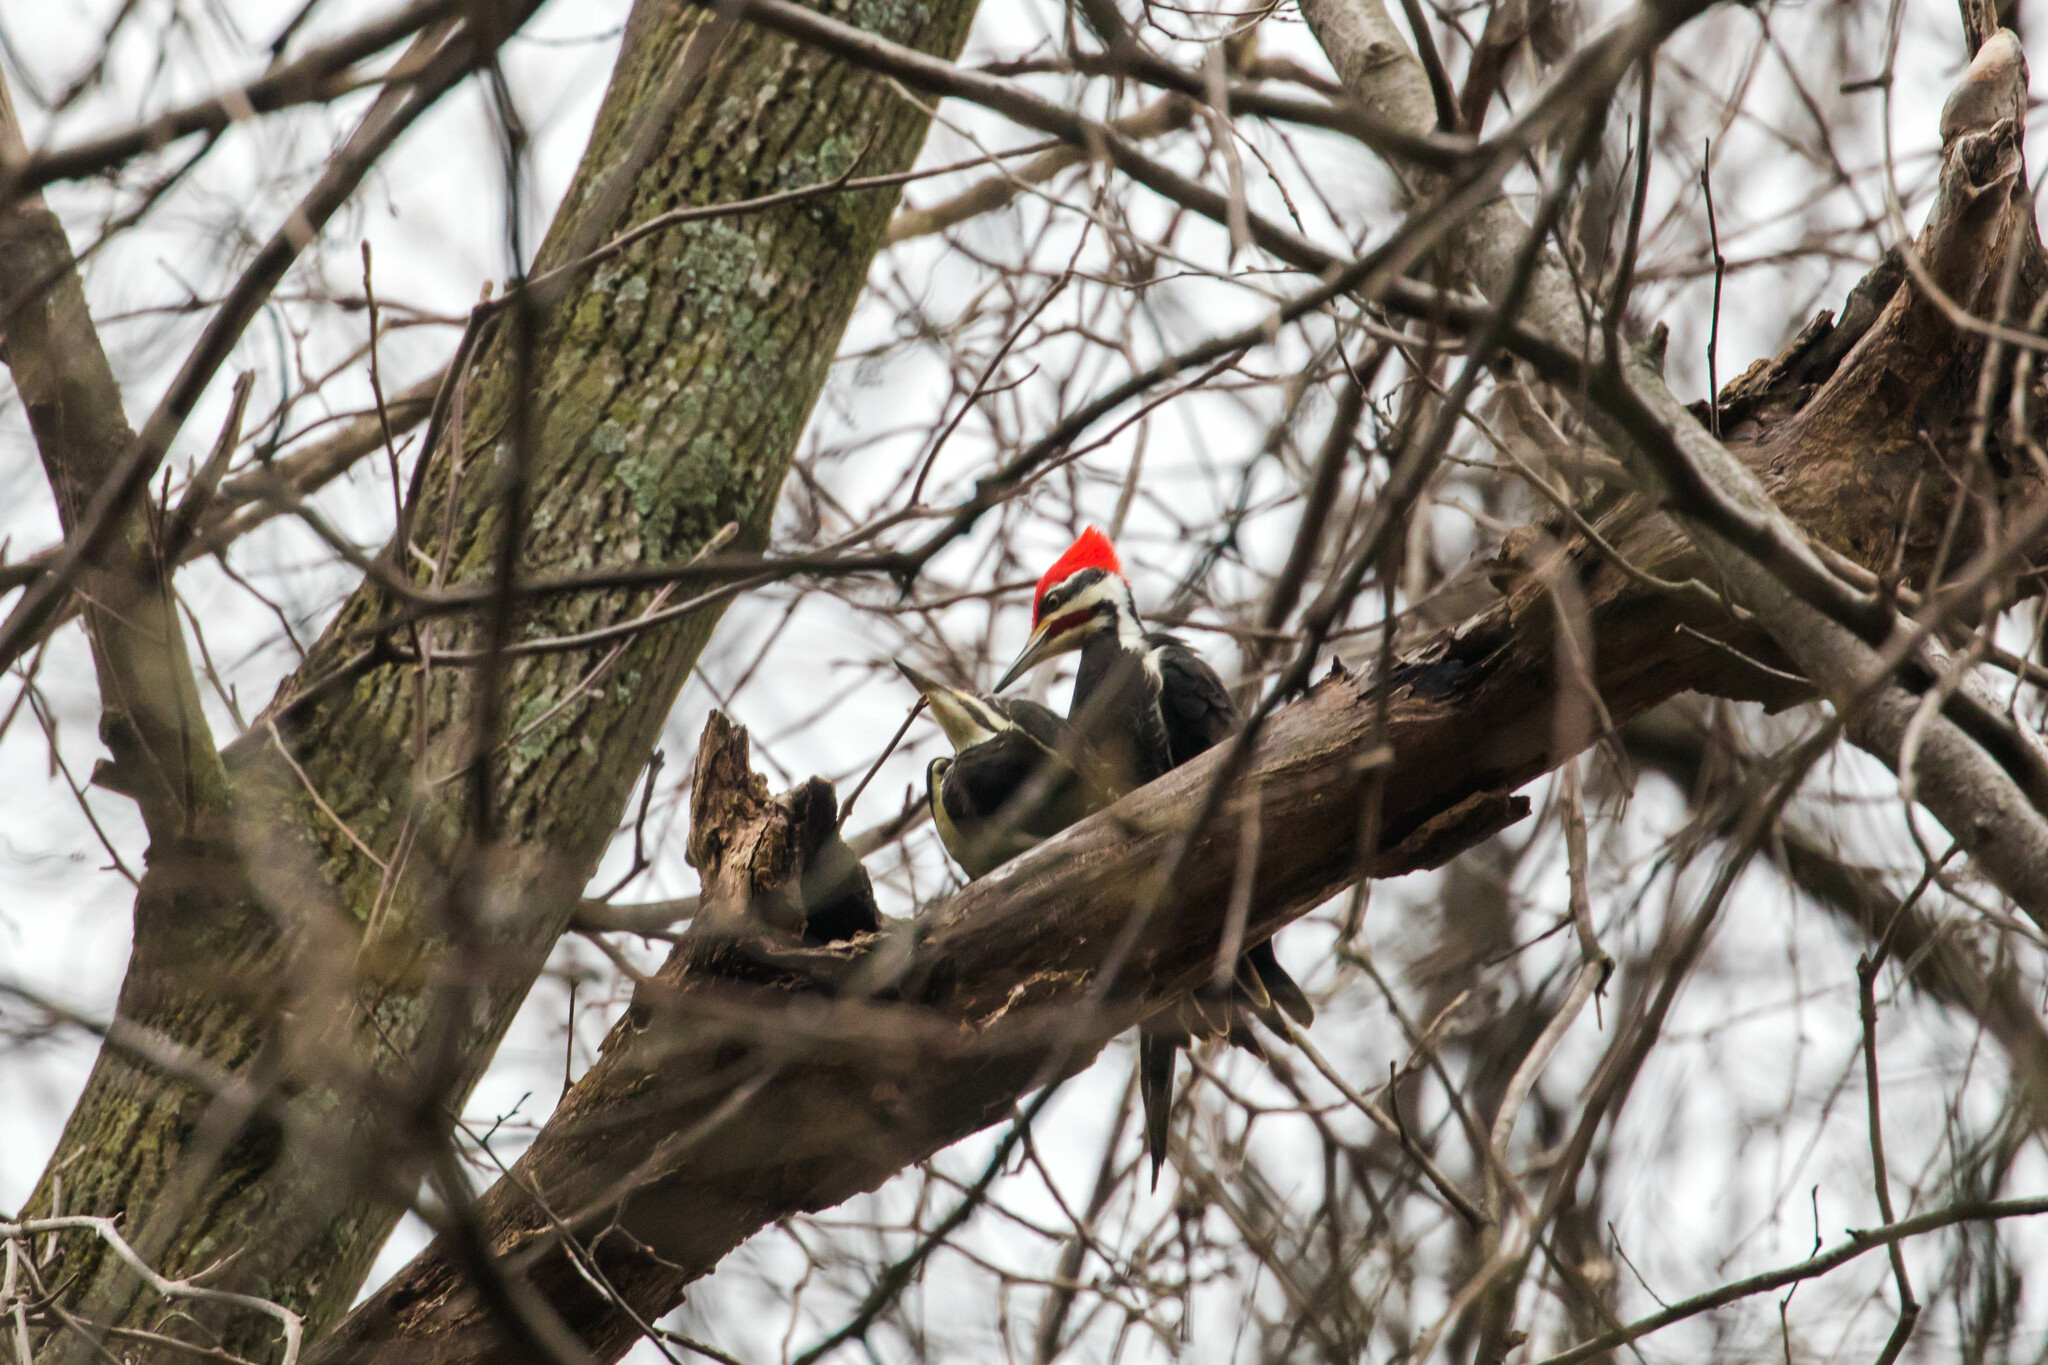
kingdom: Animalia
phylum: Chordata
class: Aves
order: Piciformes
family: Picidae
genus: Dryocopus
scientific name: Dryocopus pileatus
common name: Pileated woodpecker
